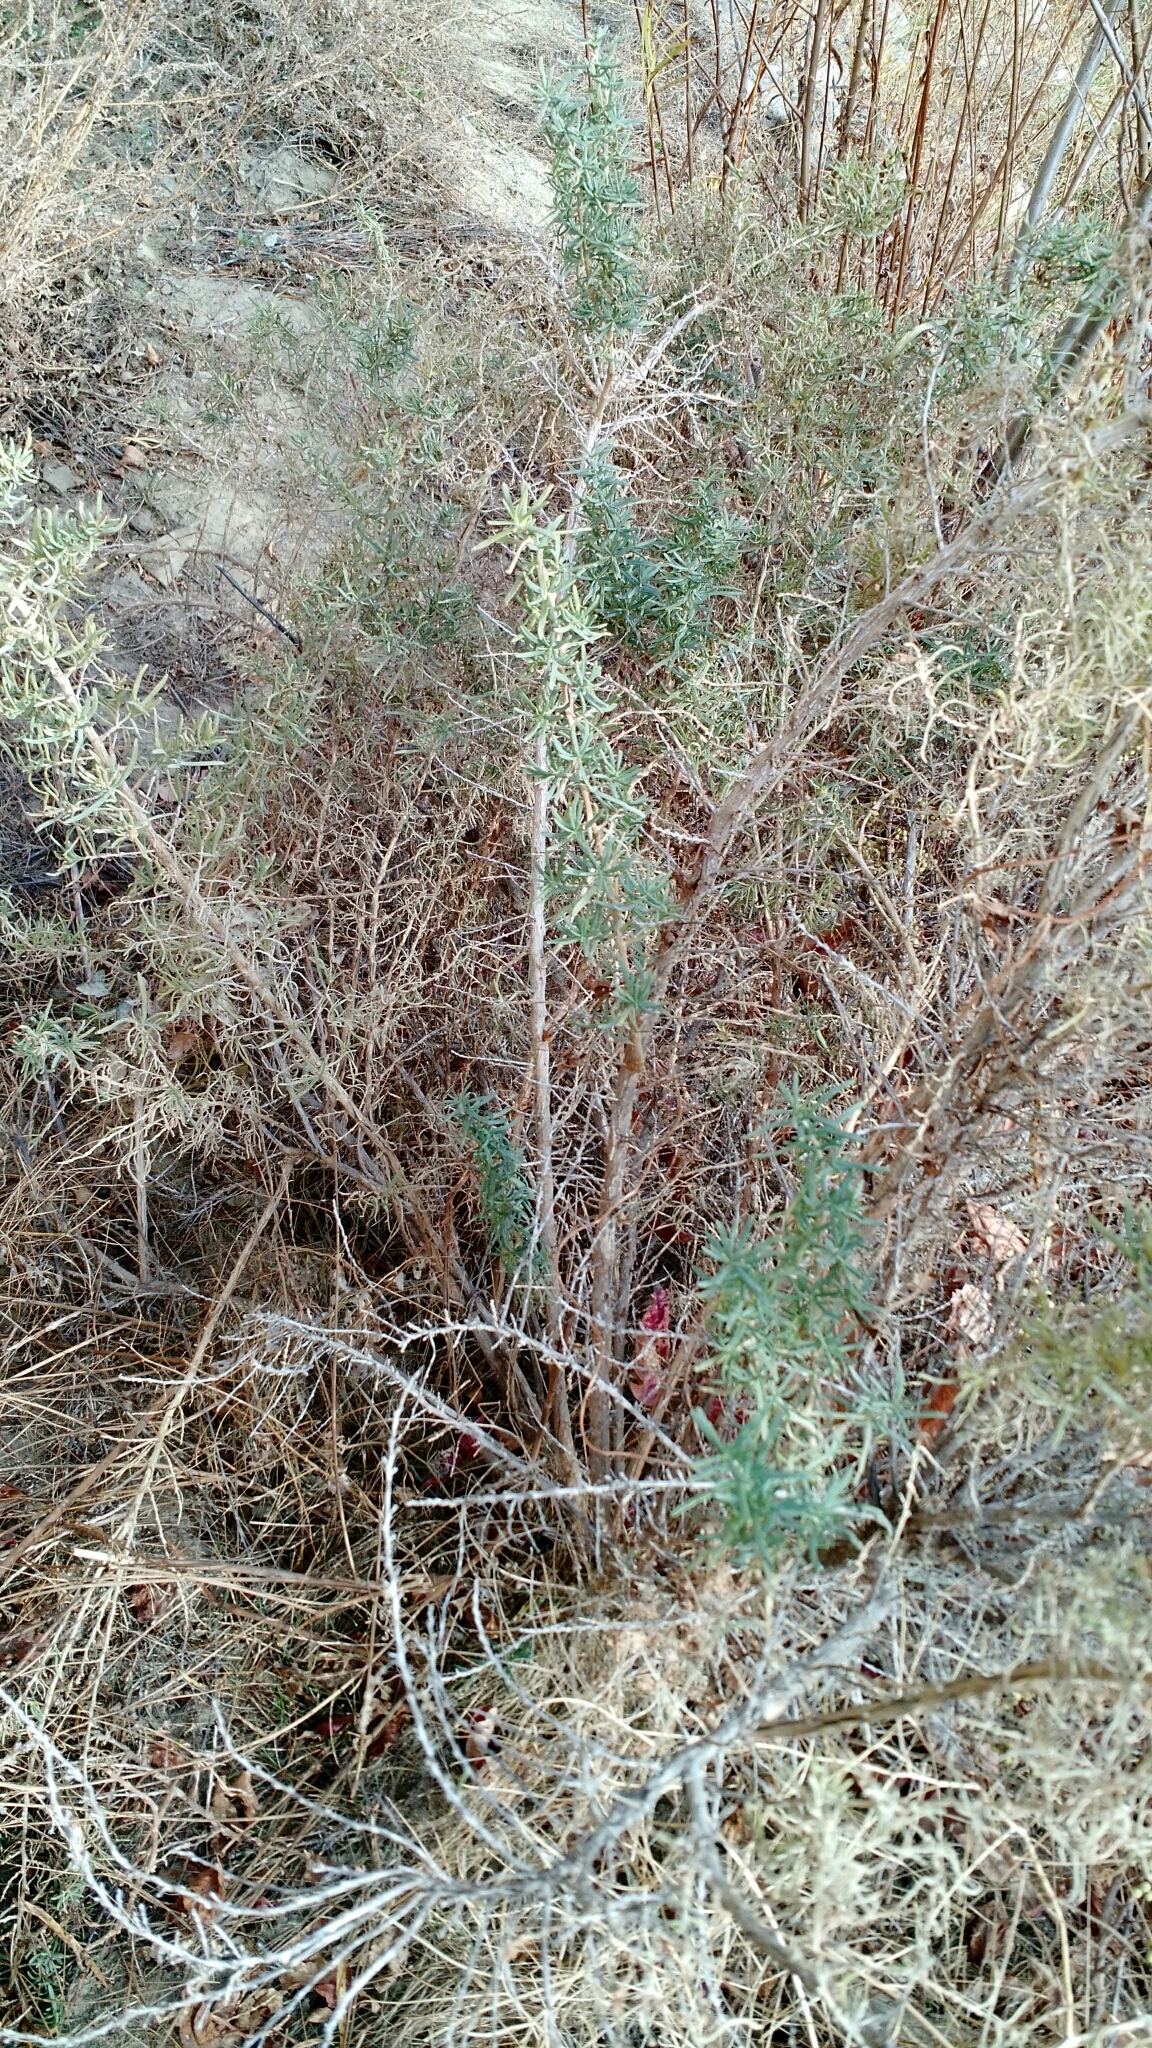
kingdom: Plantae
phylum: Tracheophyta
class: Magnoliopsida
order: Caryophyllales
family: Sarcobataceae
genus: Sarcobatus
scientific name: Sarcobatus vermiculatus
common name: Greasewood
